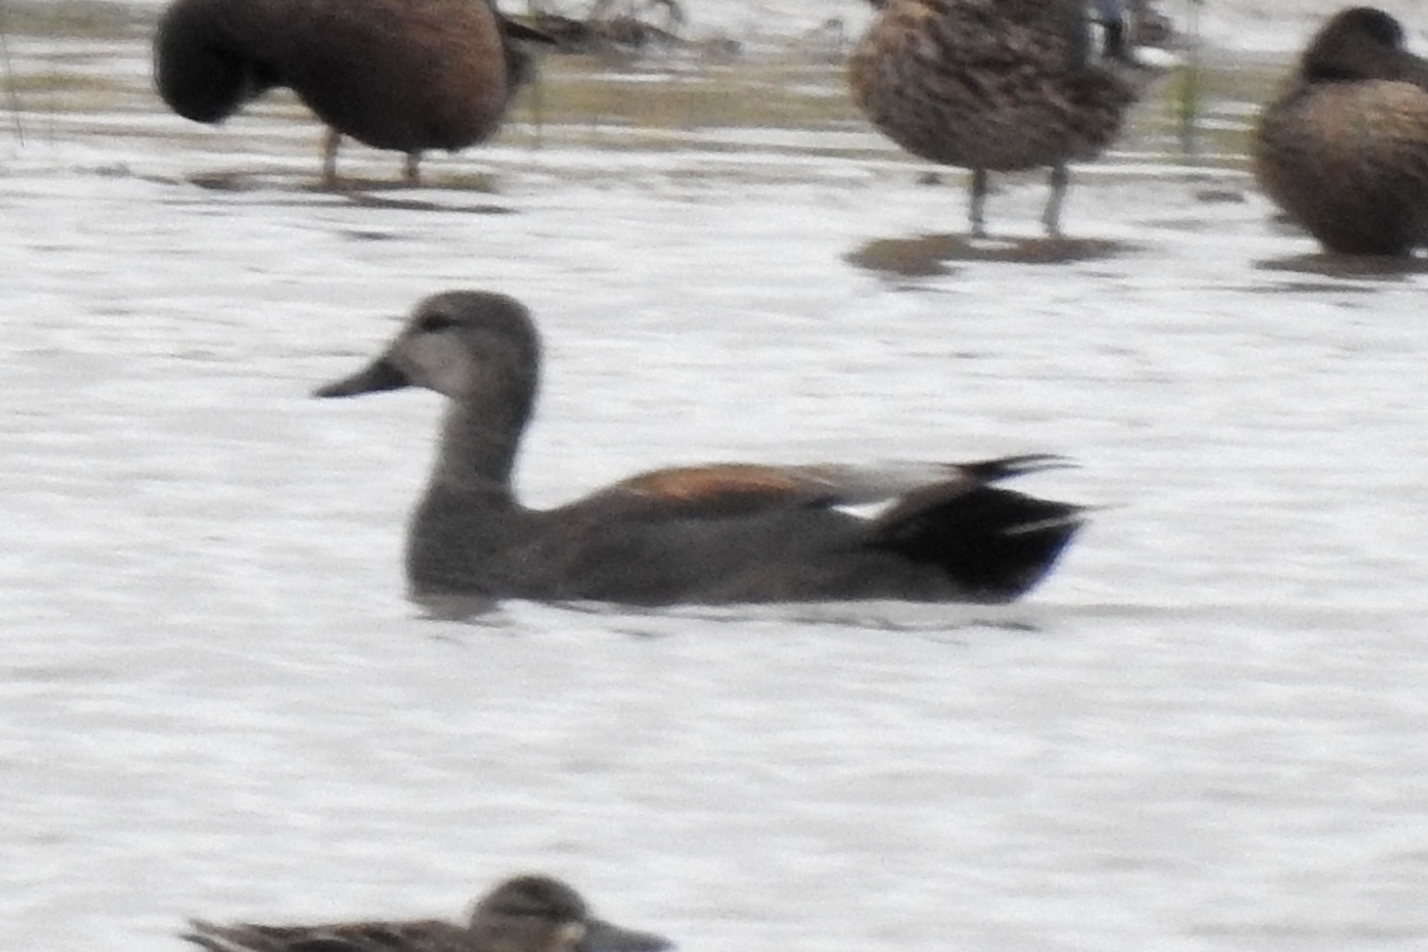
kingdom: Animalia
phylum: Chordata
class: Aves
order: Anseriformes
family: Anatidae
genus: Mareca
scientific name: Mareca strepera
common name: Gadwall
